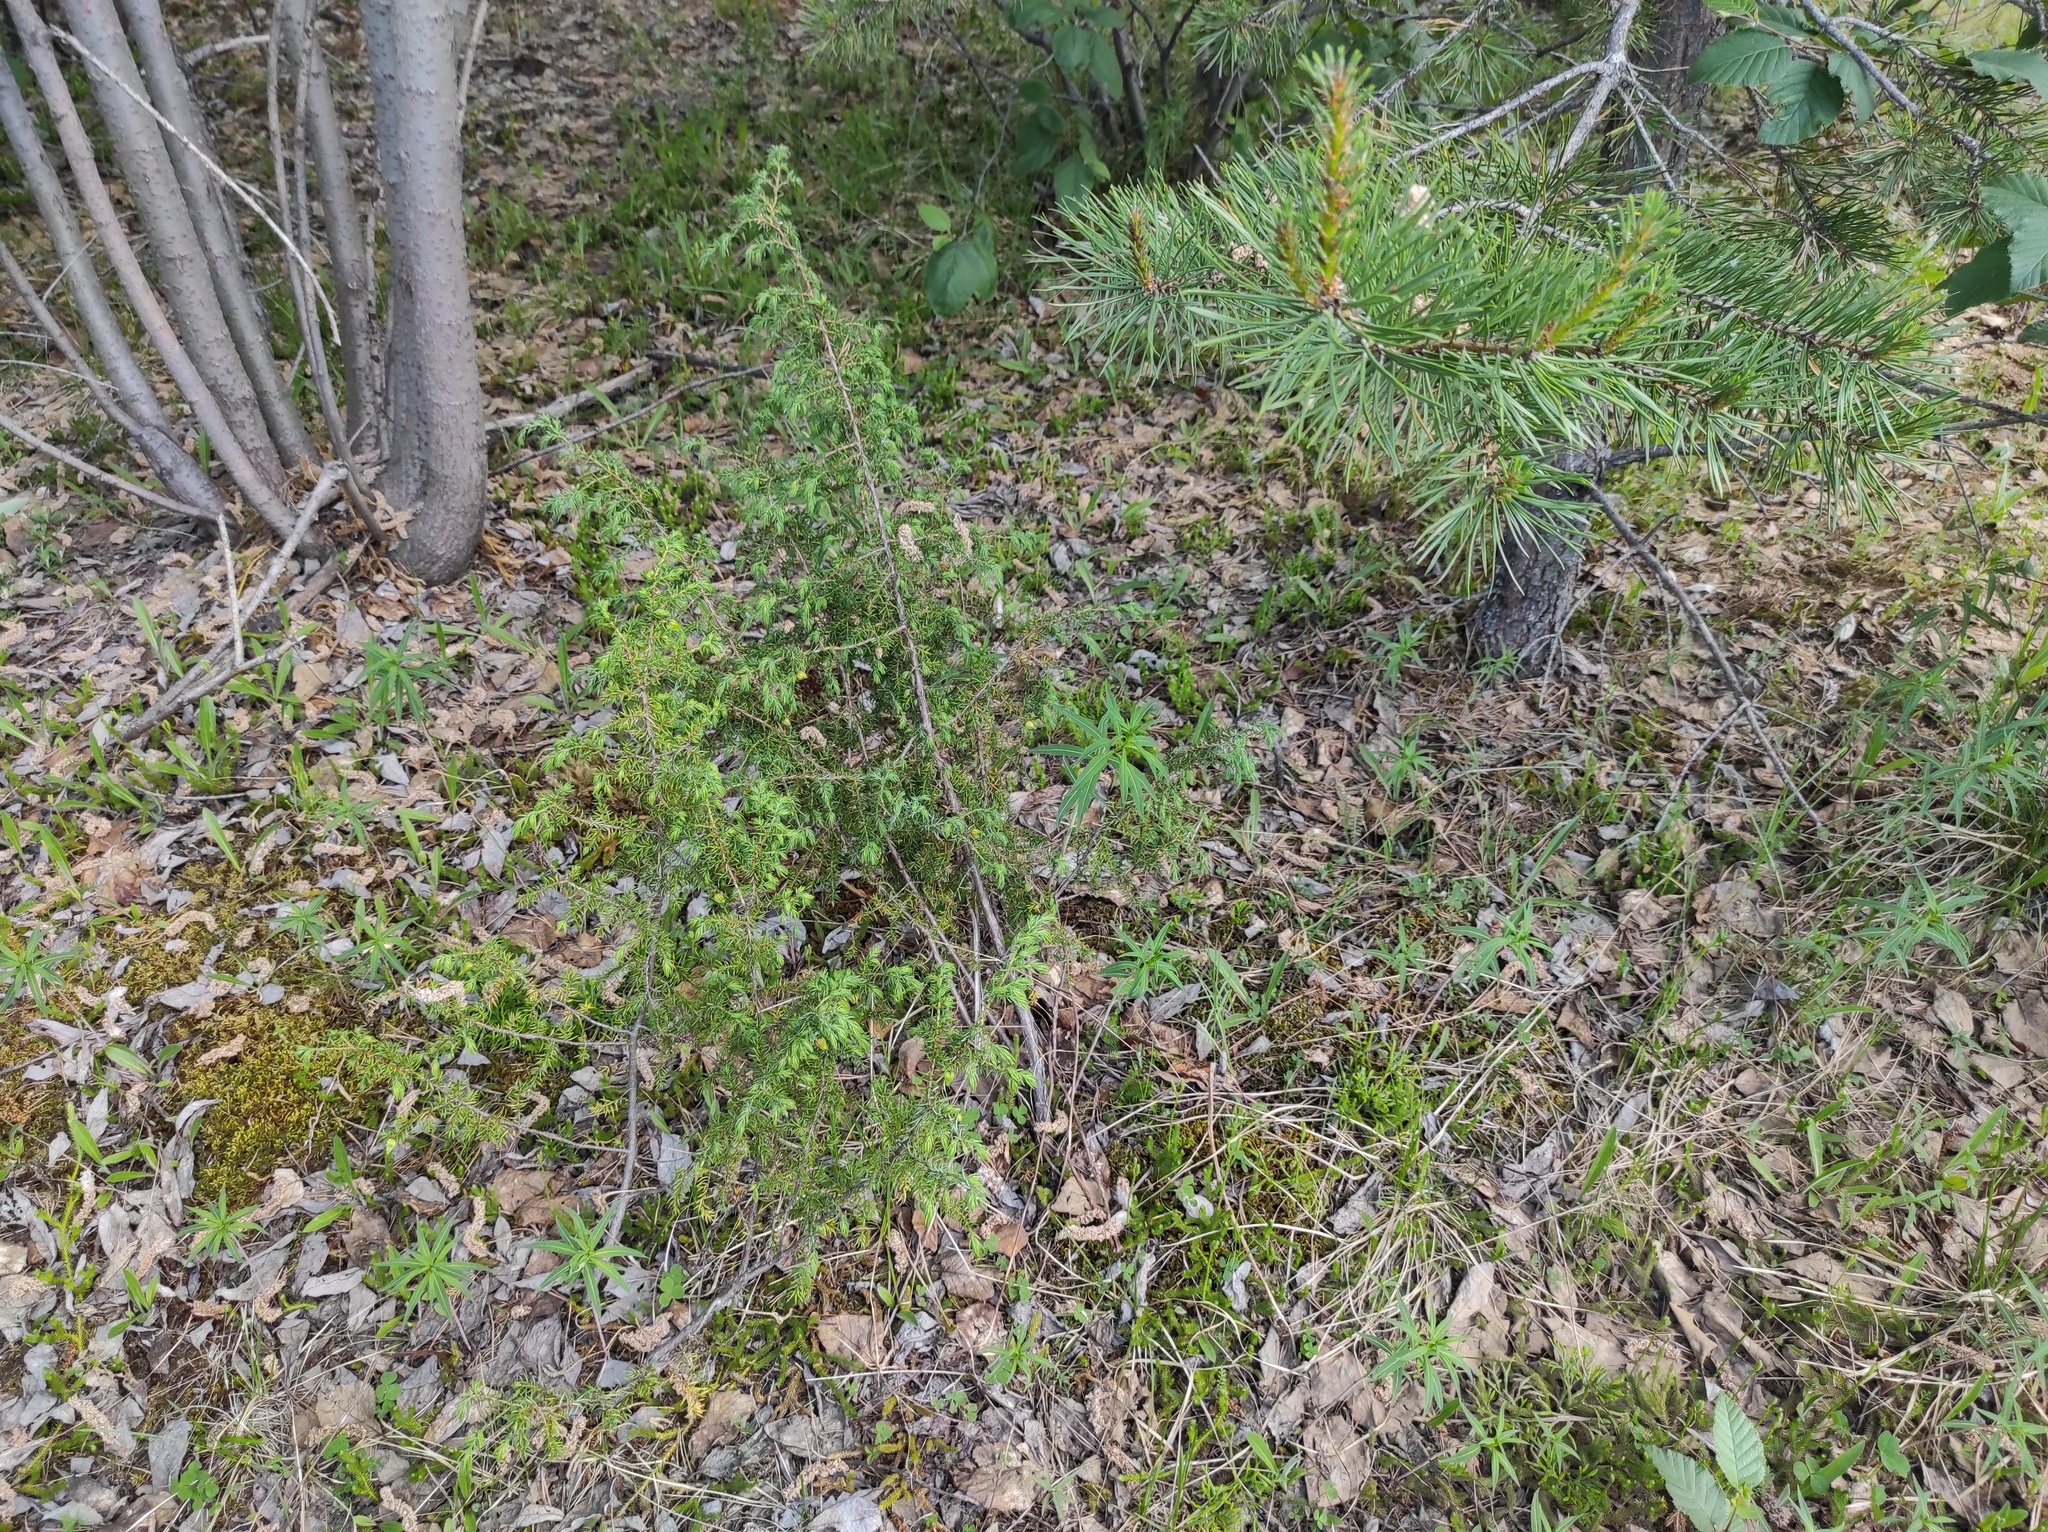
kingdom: Plantae
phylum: Tracheophyta
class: Pinopsida
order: Pinales
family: Cupressaceae
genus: Juniperus
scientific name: Juniperus communis
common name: Common juniper
